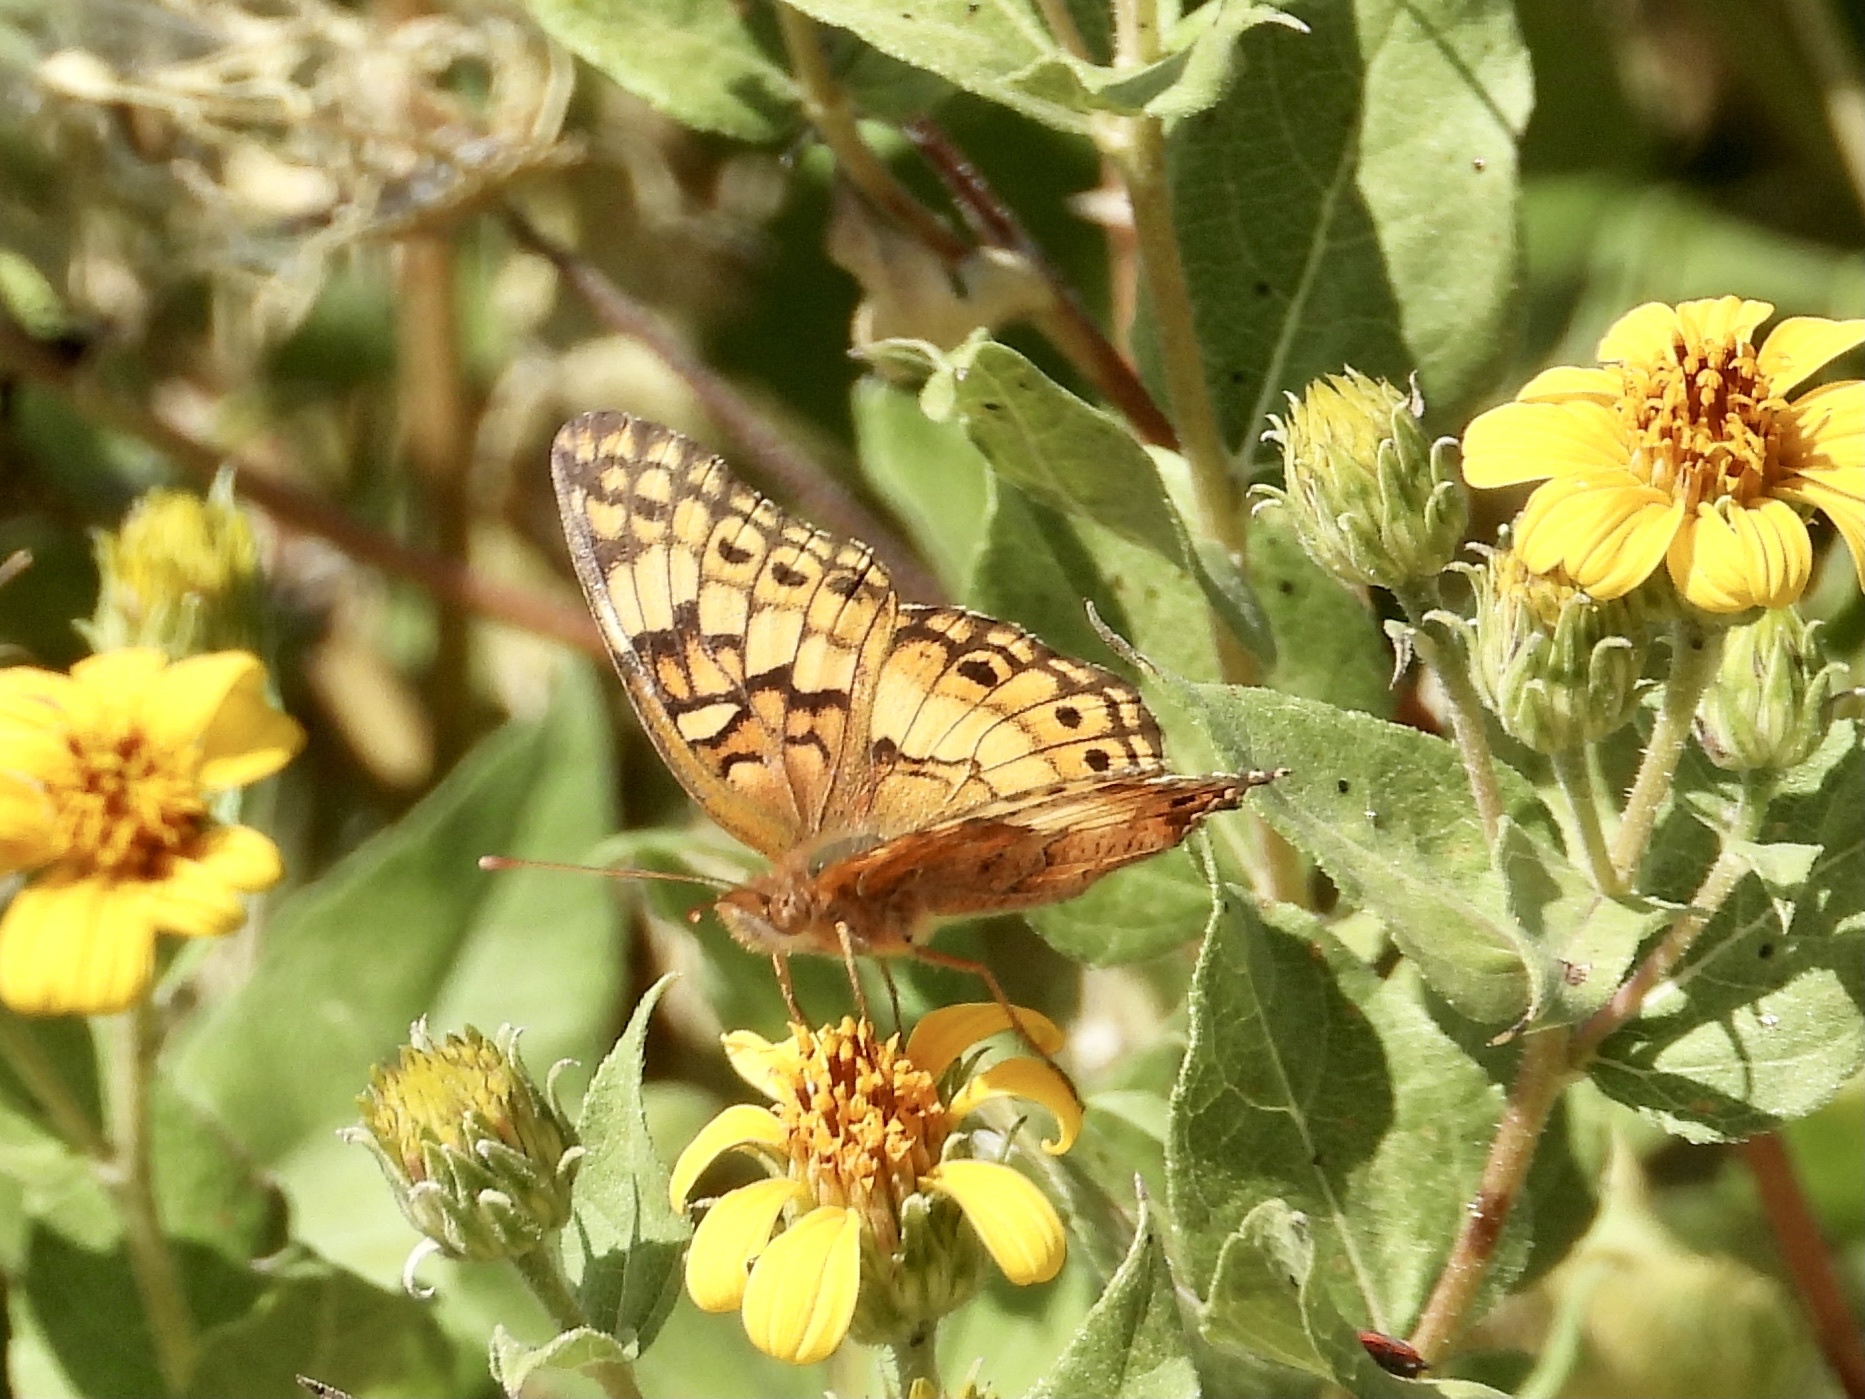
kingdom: Animalia
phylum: Arthropoda
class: Insecta
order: Lepidoptera
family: Nymphalidae
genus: Euptoieta
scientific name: Euptoieta claudia
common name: Variegated fritillary
